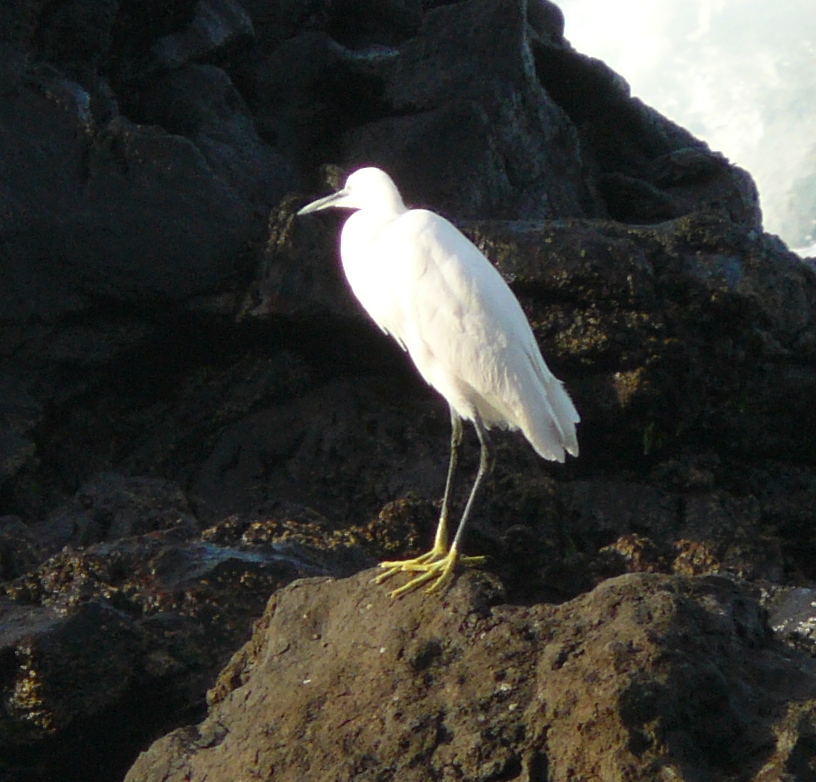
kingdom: Animalia
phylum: Chordata
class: Aves
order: Pelecaniformes
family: Ardeidae
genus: Egretta
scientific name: Egretta garzetta
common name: Little egret
